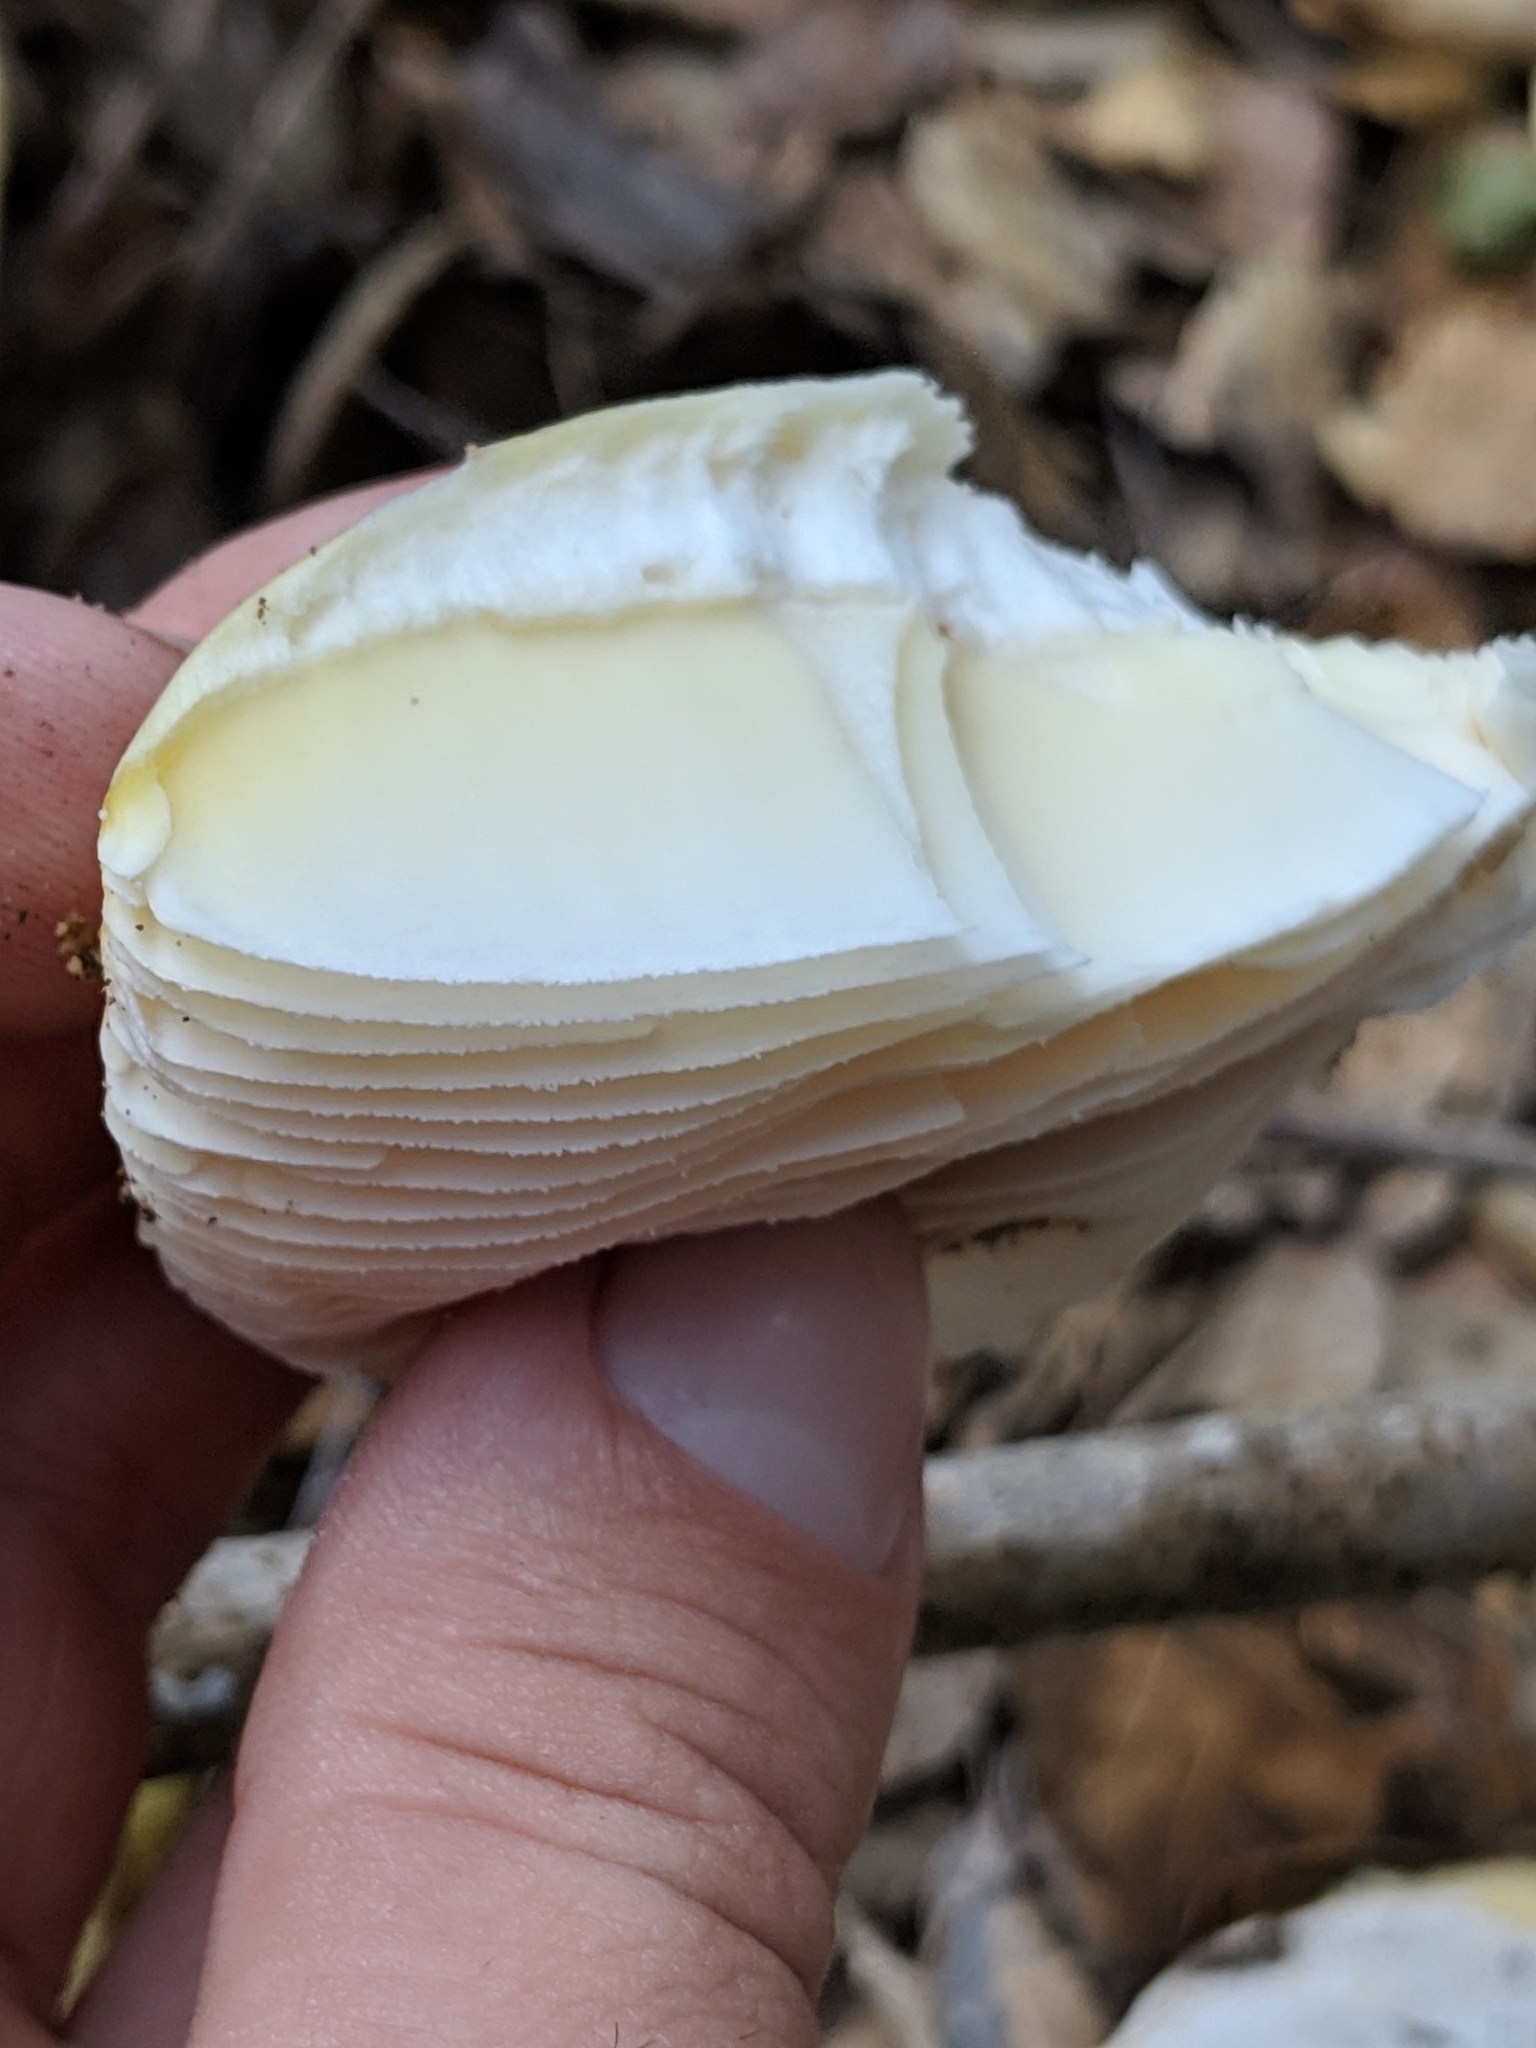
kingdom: Fungi
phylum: Basidiomycota
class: Agaricomycetes
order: Agaricales
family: Amanitaceae
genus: Amanita
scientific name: Amanita vernicoccora
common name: Spring coccora
